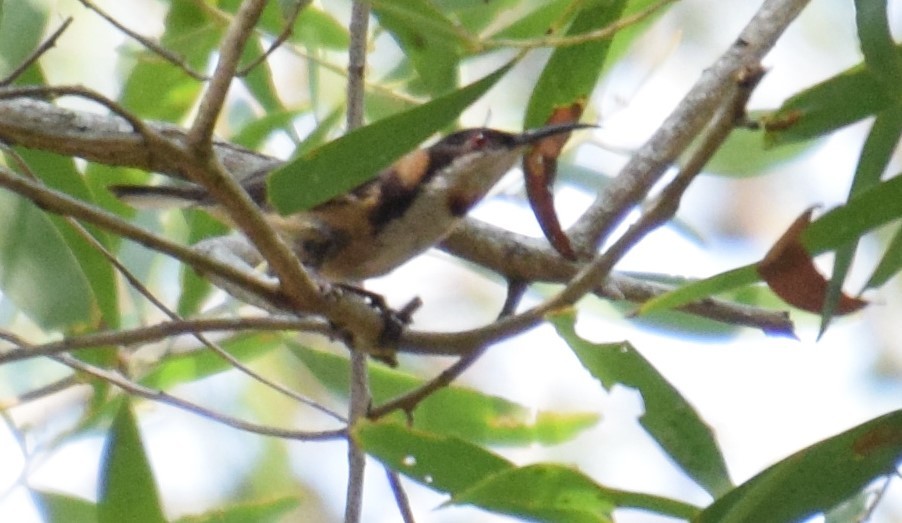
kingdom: Animalia
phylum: Chordata
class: Aves
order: Passeriformes
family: Meliphagidae
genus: Acanthorhynchus
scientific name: Acanthorhynchus tenuirostris
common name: Eastern spinebill
